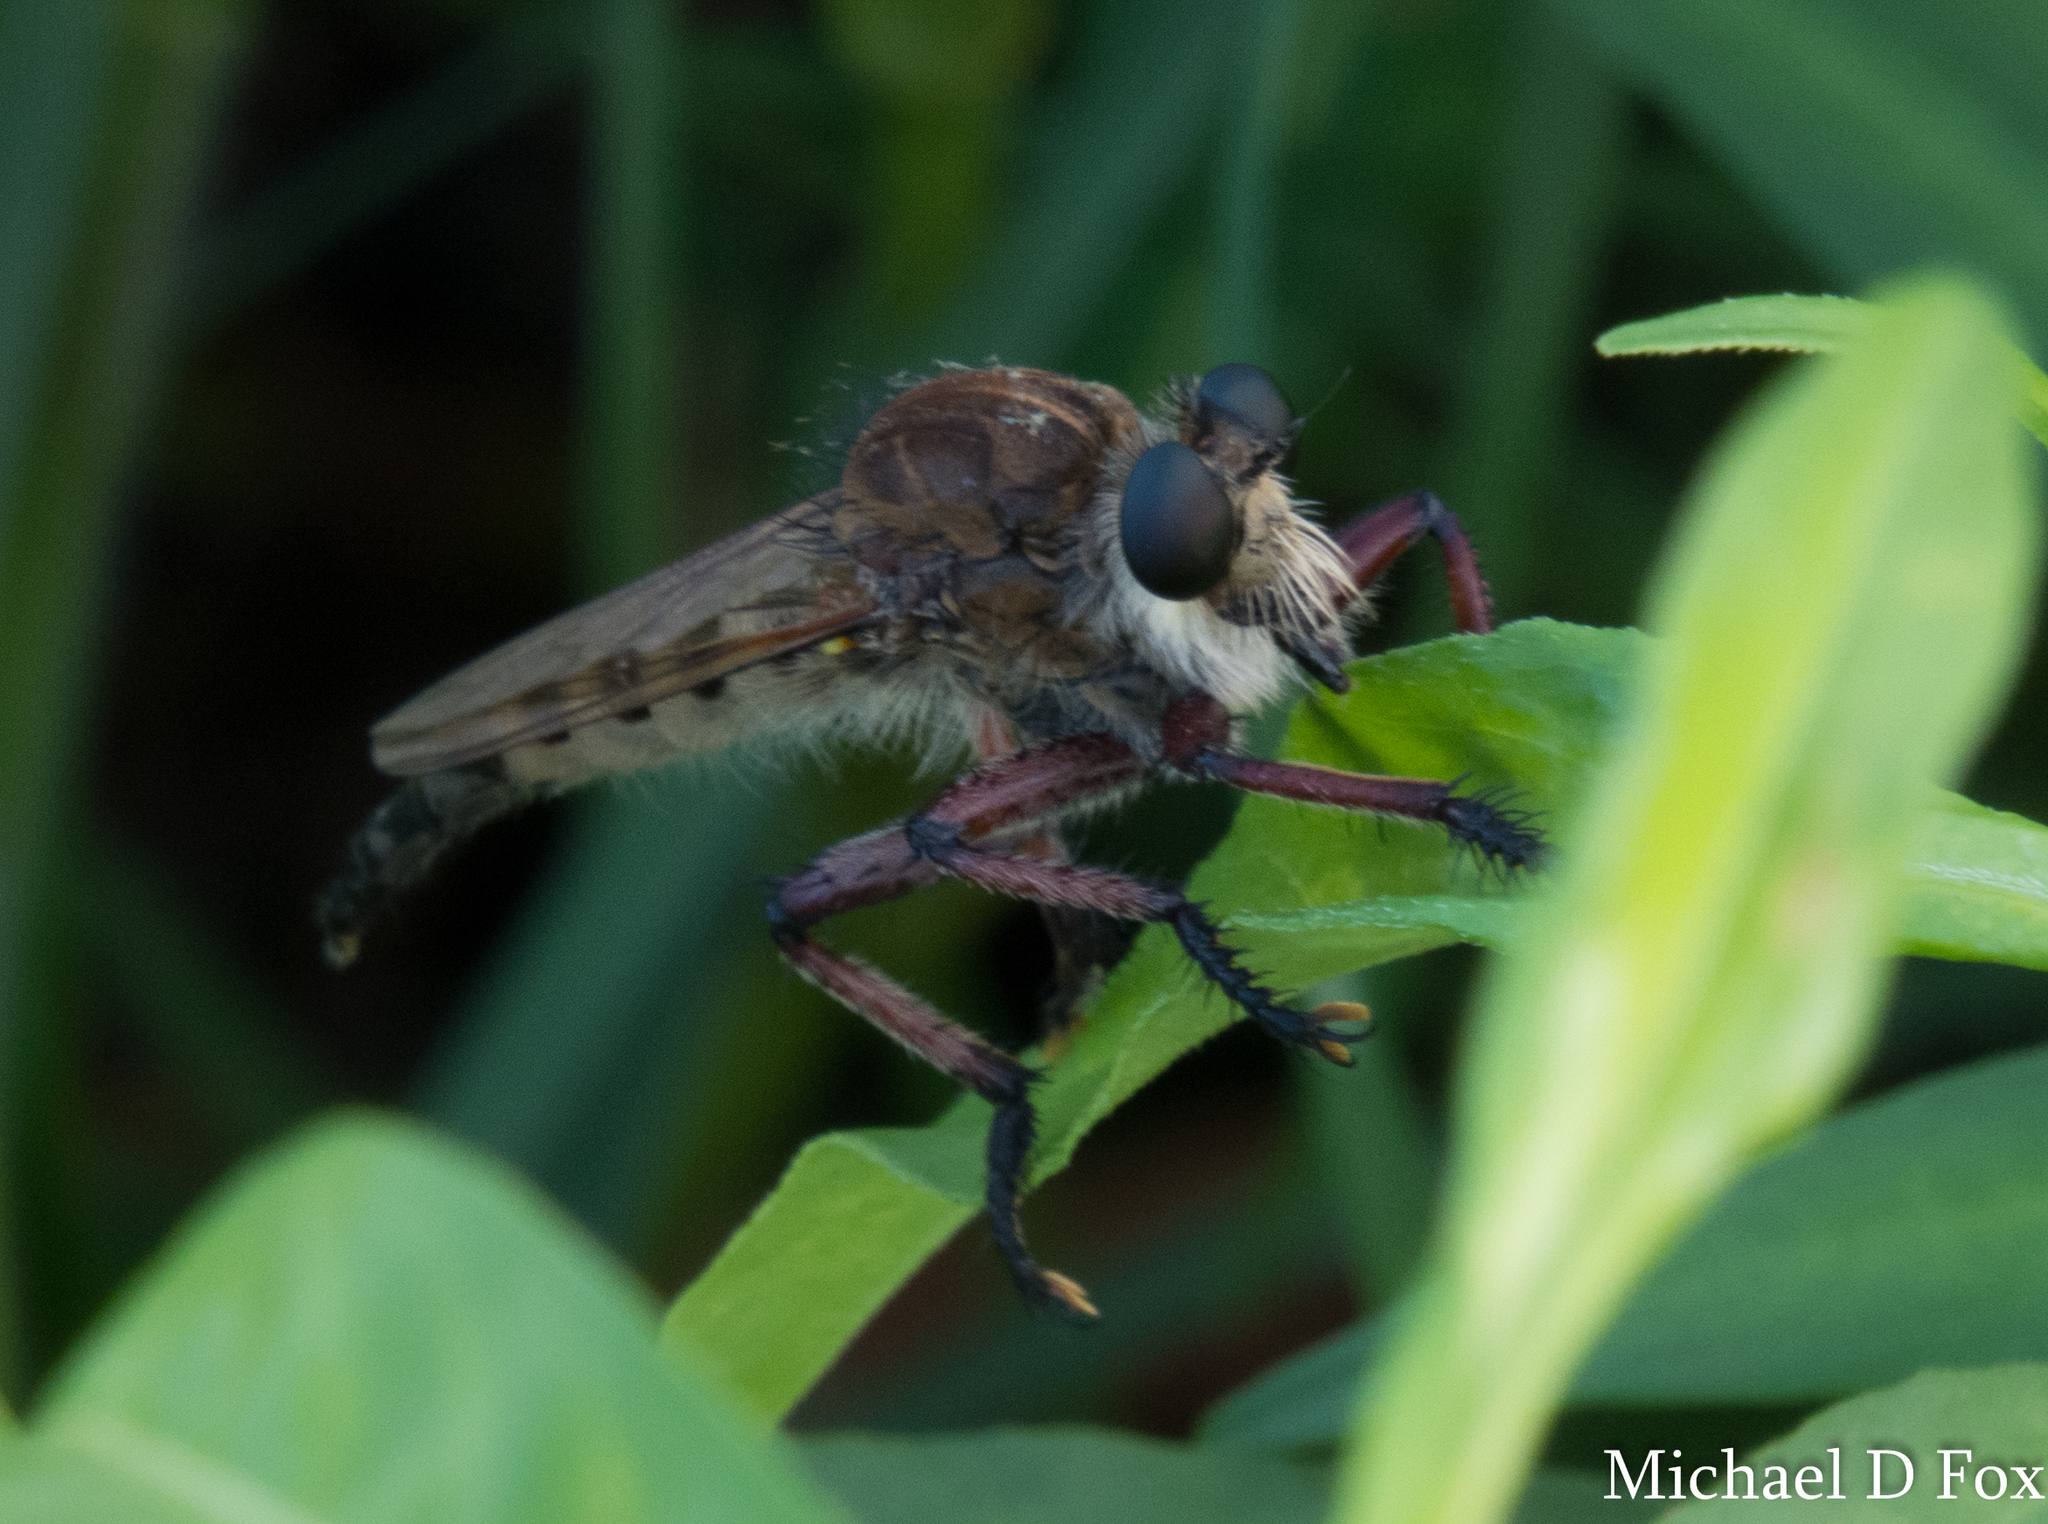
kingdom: Animalia
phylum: Arthropoda
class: Insecta
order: Diptera
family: Asilidae
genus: Promachus
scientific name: Promachus hinei
